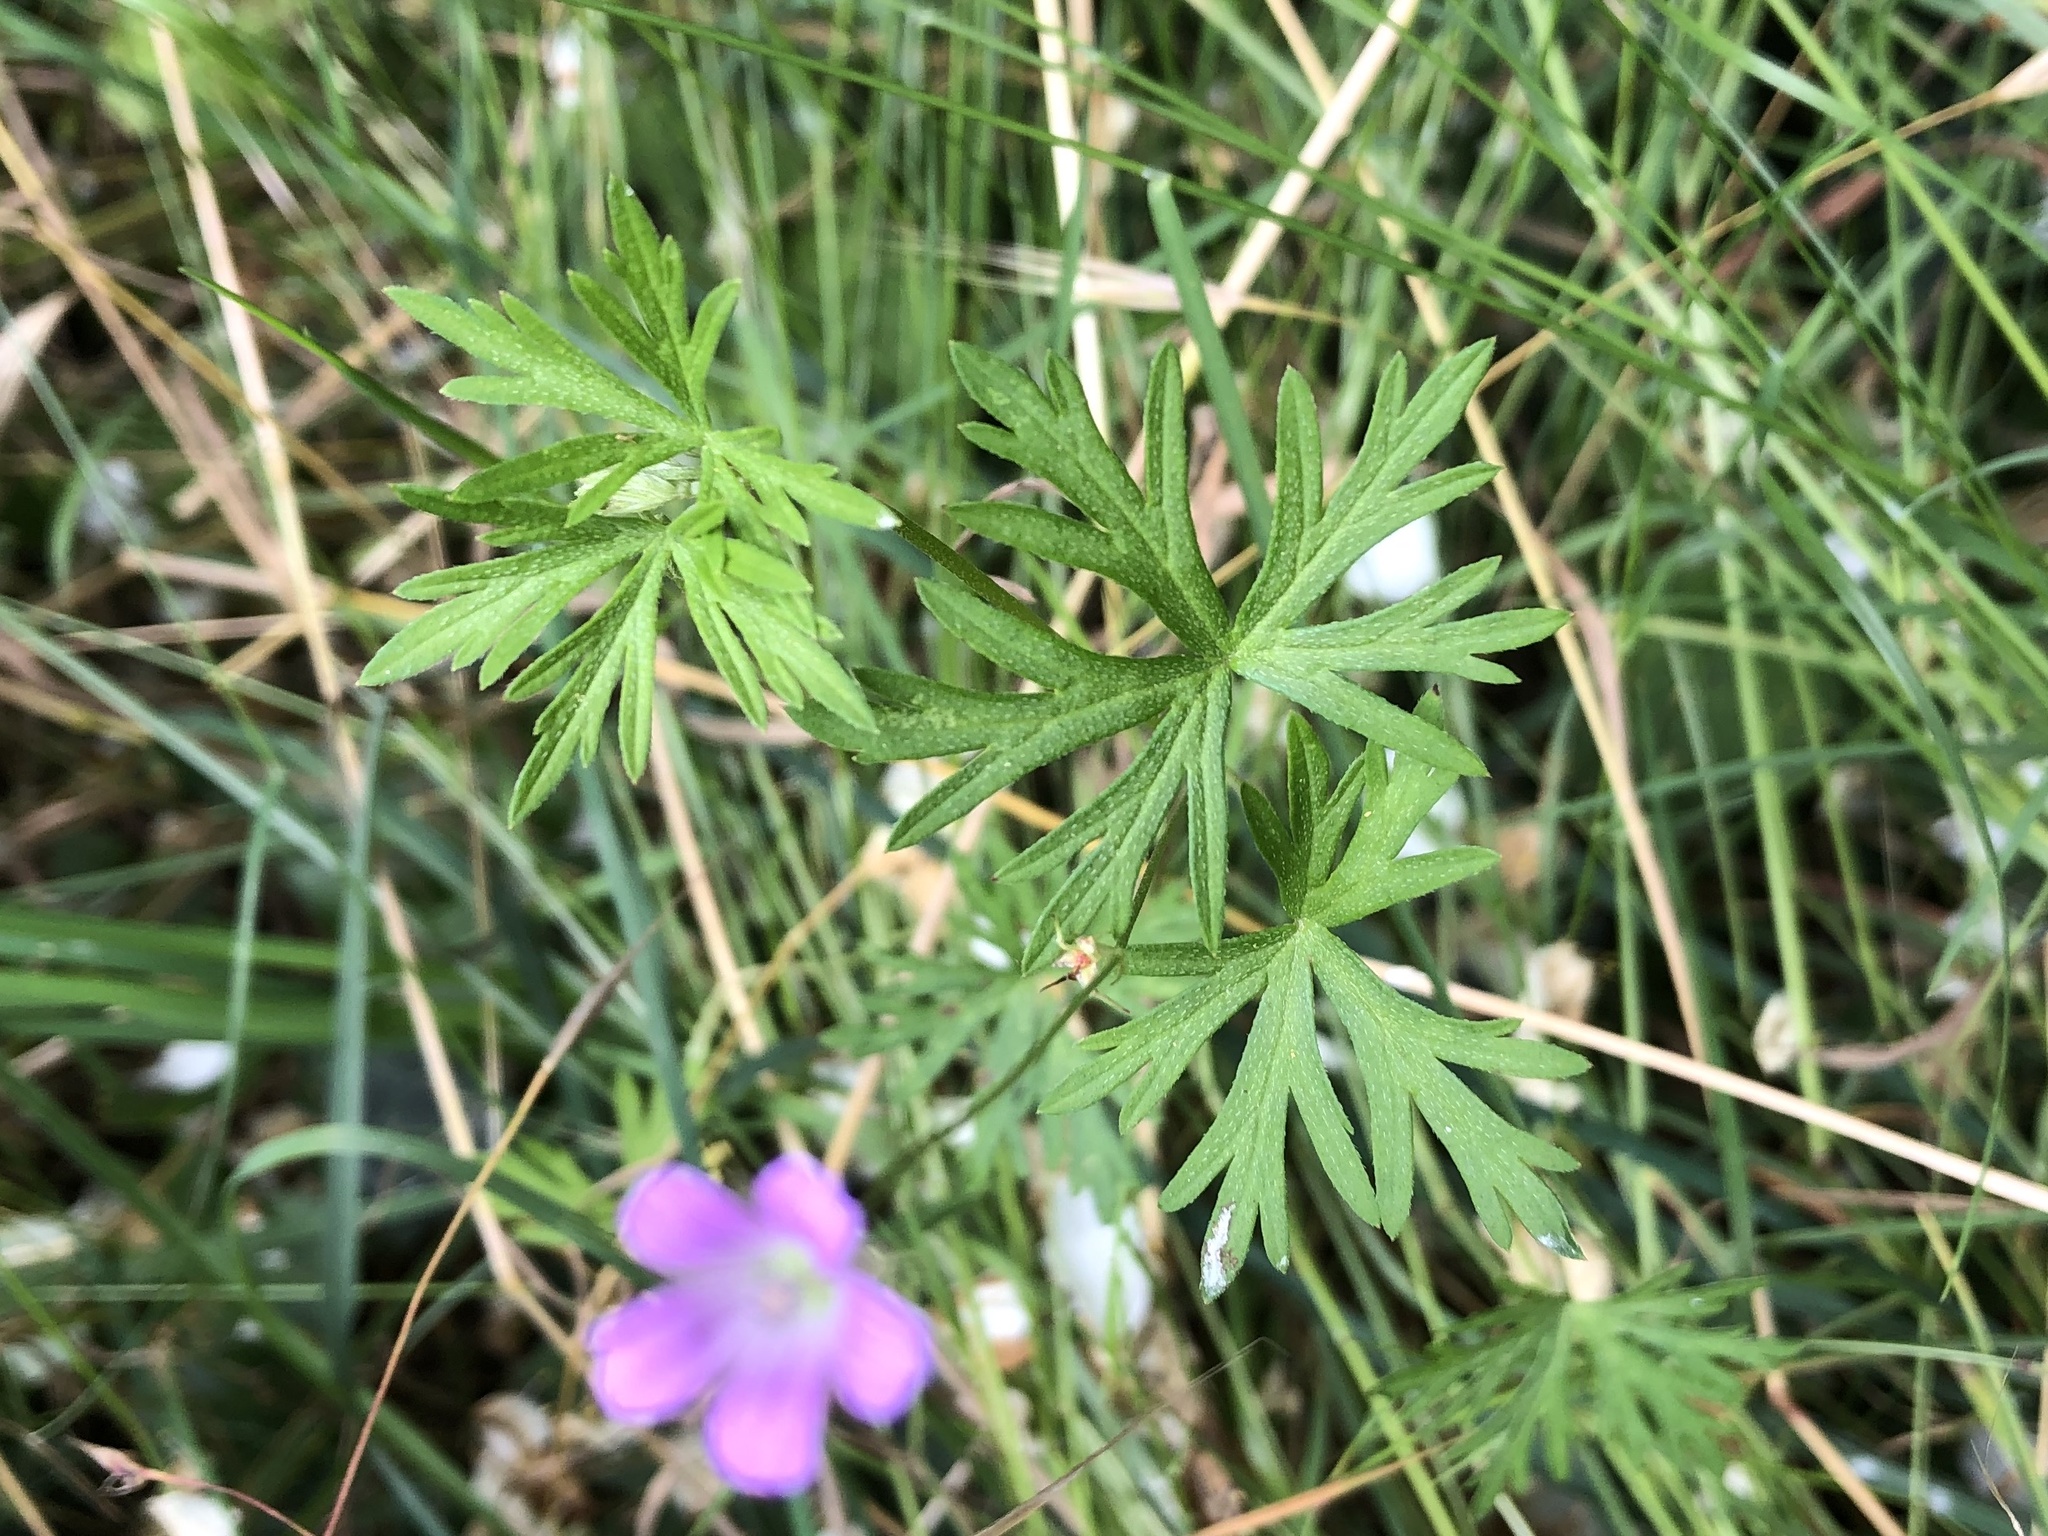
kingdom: Plantae
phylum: Tracheophyta
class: Magnoliopsida
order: Geraniales
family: Geraniaceae
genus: Geranium
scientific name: Geranium columbinum
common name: Long-stalked crane's-bill
